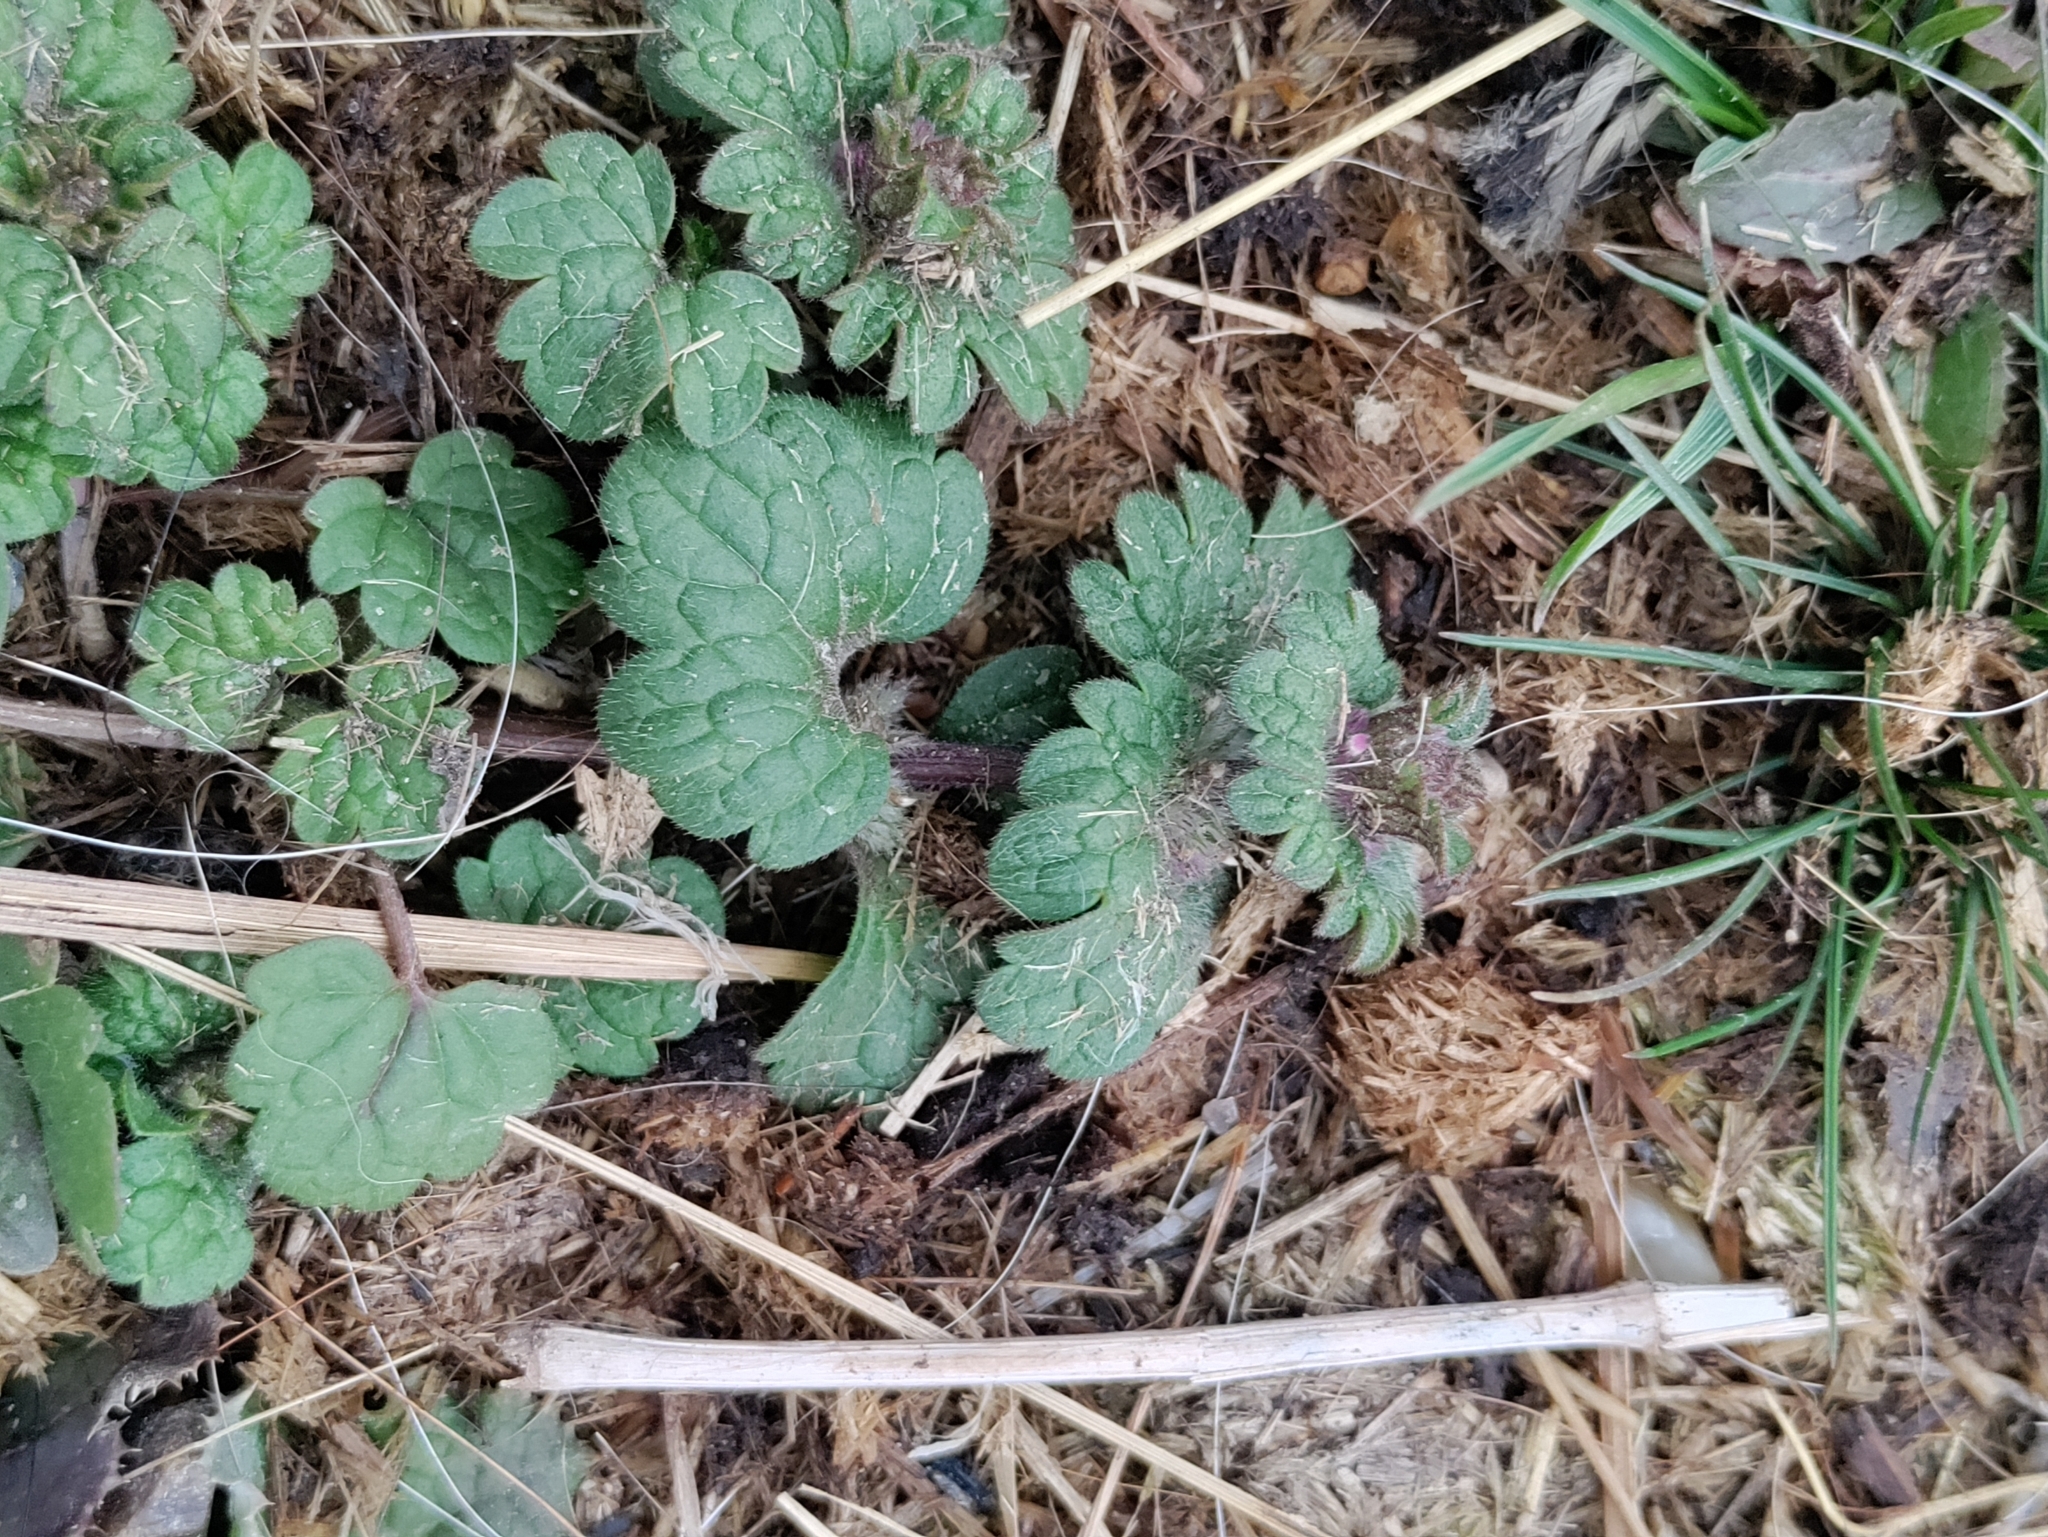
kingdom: Plantae
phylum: Tracheophyta
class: Magnoliopsida
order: Lamiales
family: Lamiaceae
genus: Lamium
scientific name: Lamium amplexicaule
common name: Henbit dead-nettle
